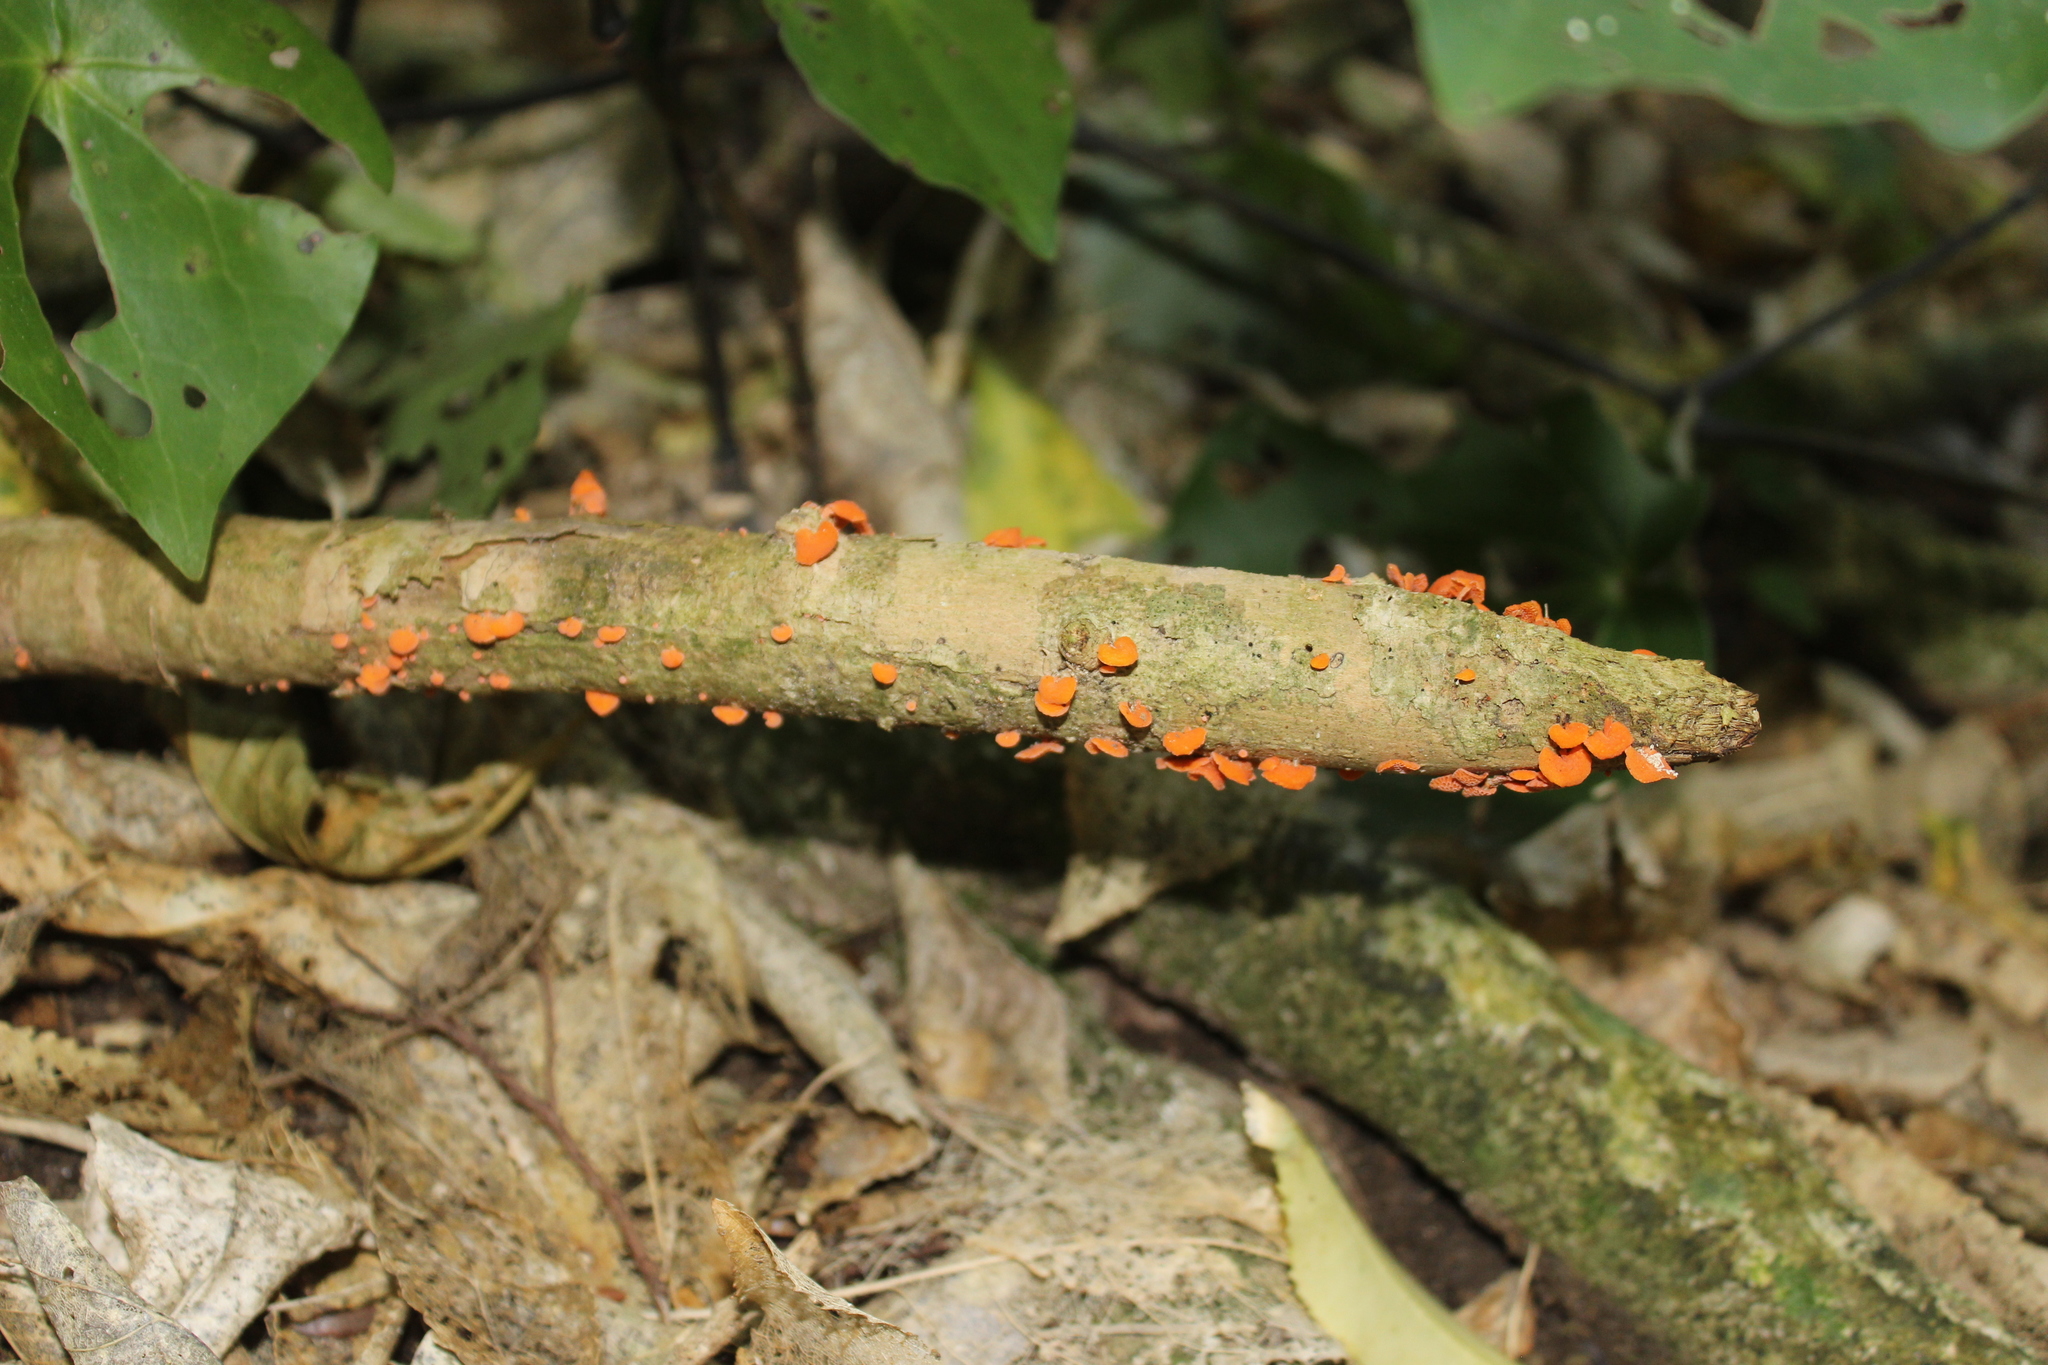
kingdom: Fungi
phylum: Basidiomycota
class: Agaricomycetes
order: Agaricales
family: Mycenaceae
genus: Favolaschia
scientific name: Favolaschia claudopus
